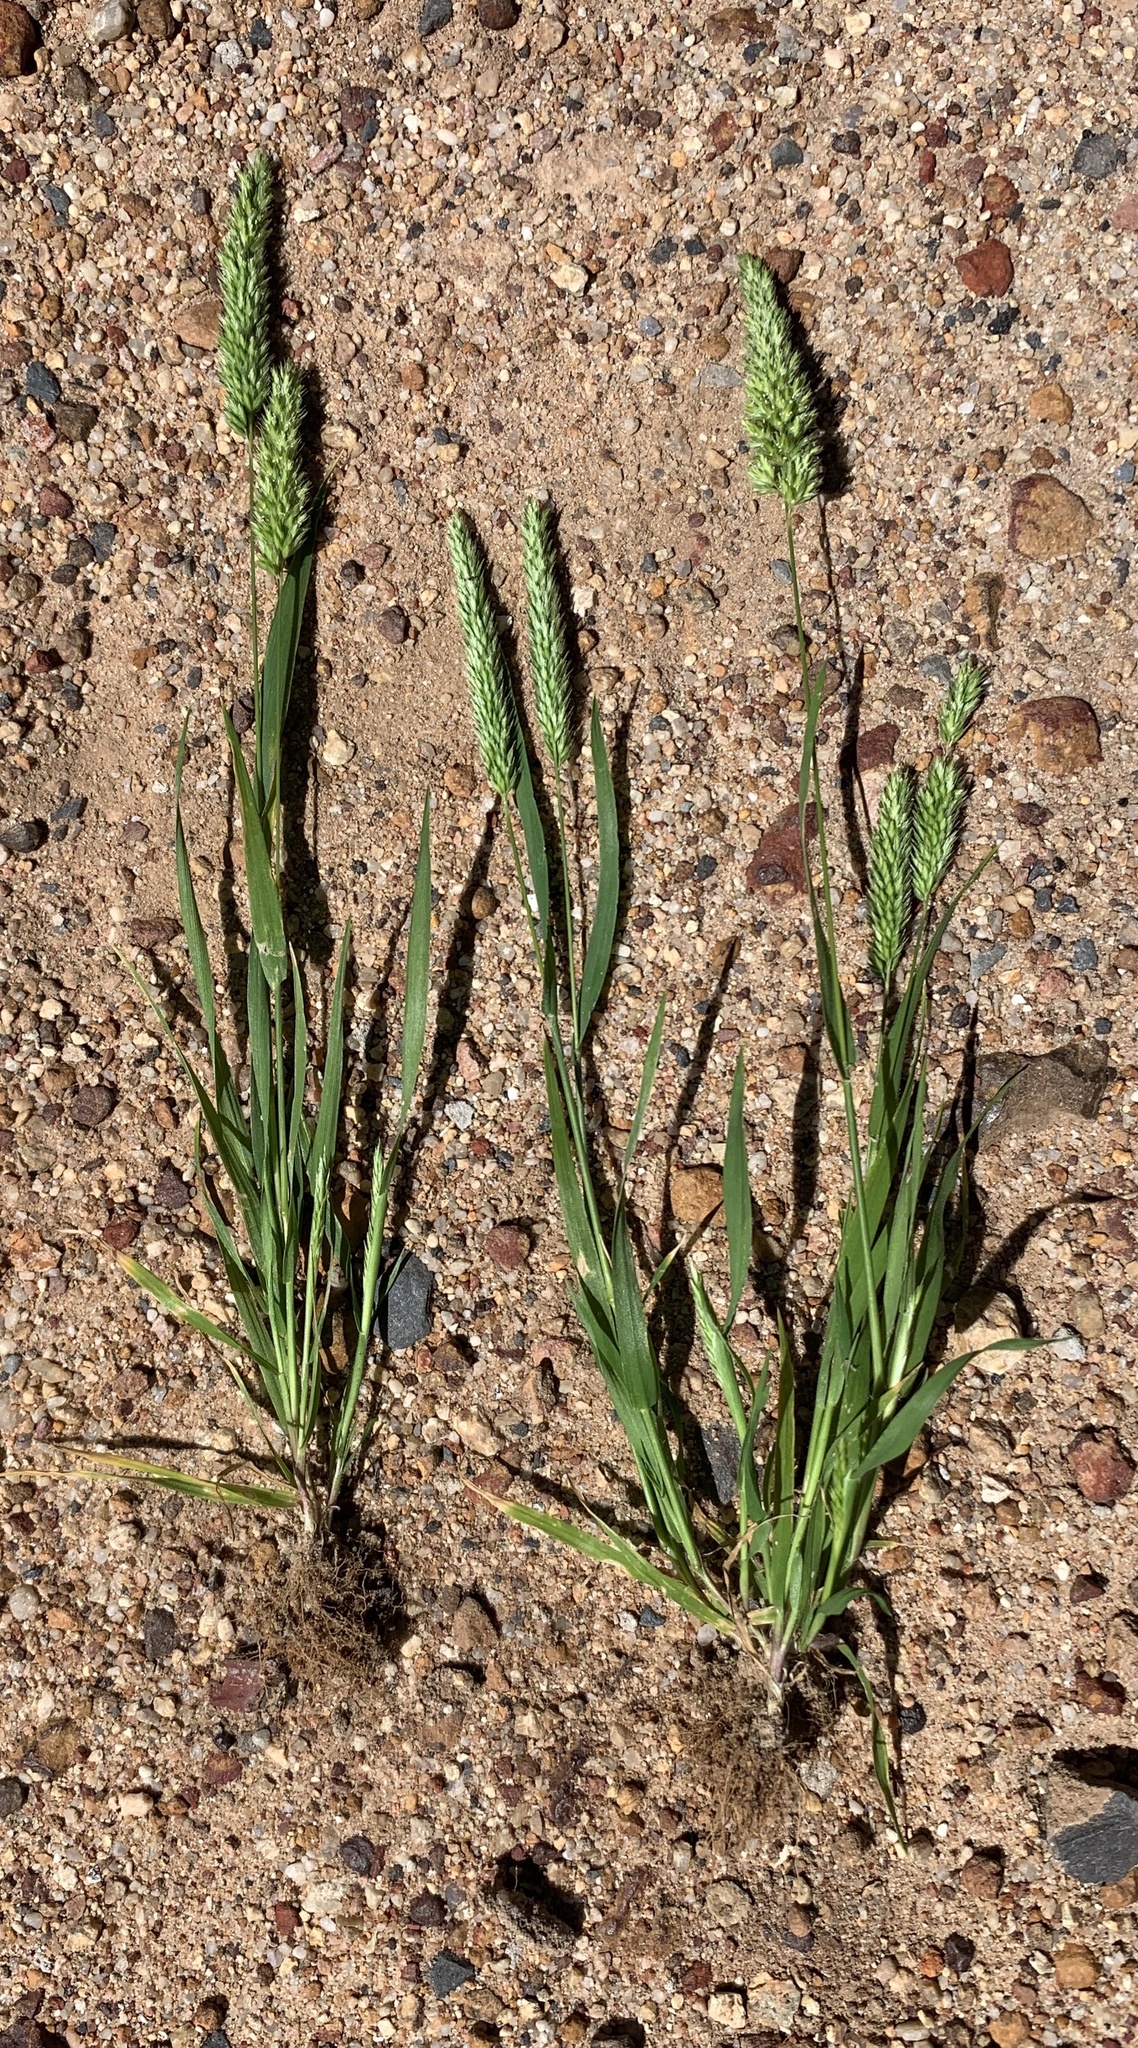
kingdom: Plantae
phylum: Tracheophyta
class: Liliopsida
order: Poales
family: Poaceae
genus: Rostraria
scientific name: Rostraria cristata
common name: Mediterranean hair-grass
